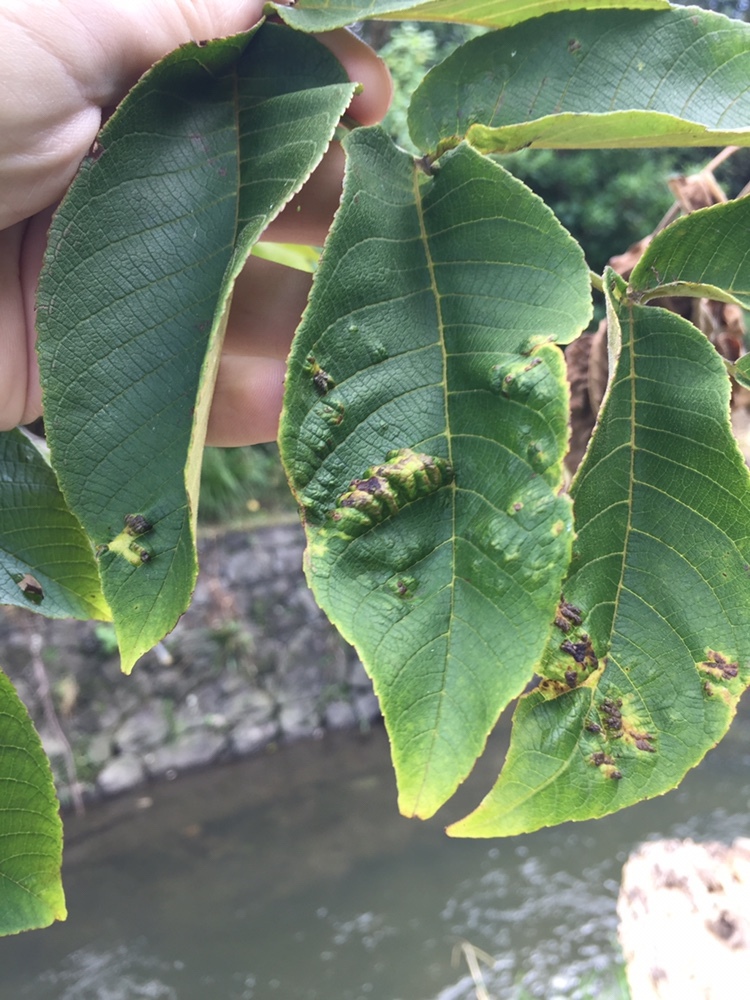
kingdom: Animalia
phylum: Arthropoda
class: Arachnida
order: Trombidiformes
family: Eriophyidae
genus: Aceria
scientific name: Aceria erinea
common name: Persian walnut erineum mite
